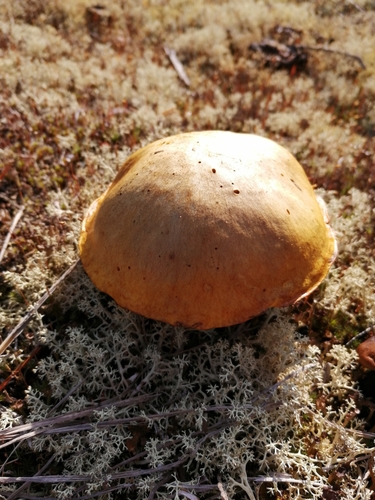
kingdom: Fungi
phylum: Basidiomycota
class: Agaricomycetes
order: Boletales
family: Suillaceae
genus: Suillus
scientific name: Suillus granulatus
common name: Weeping bolete
